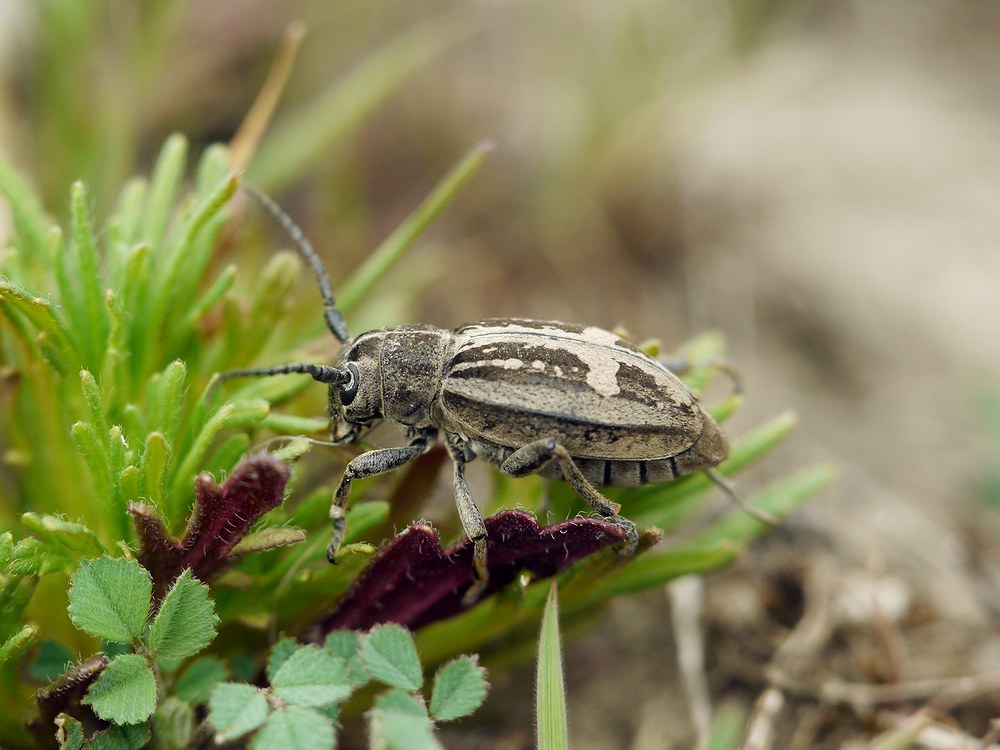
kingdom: Animalia
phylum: Arthropoda
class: Insecta
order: Coleoptera
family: Cerambycidae
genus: Dorcadion
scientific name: Dorcadion equestre
